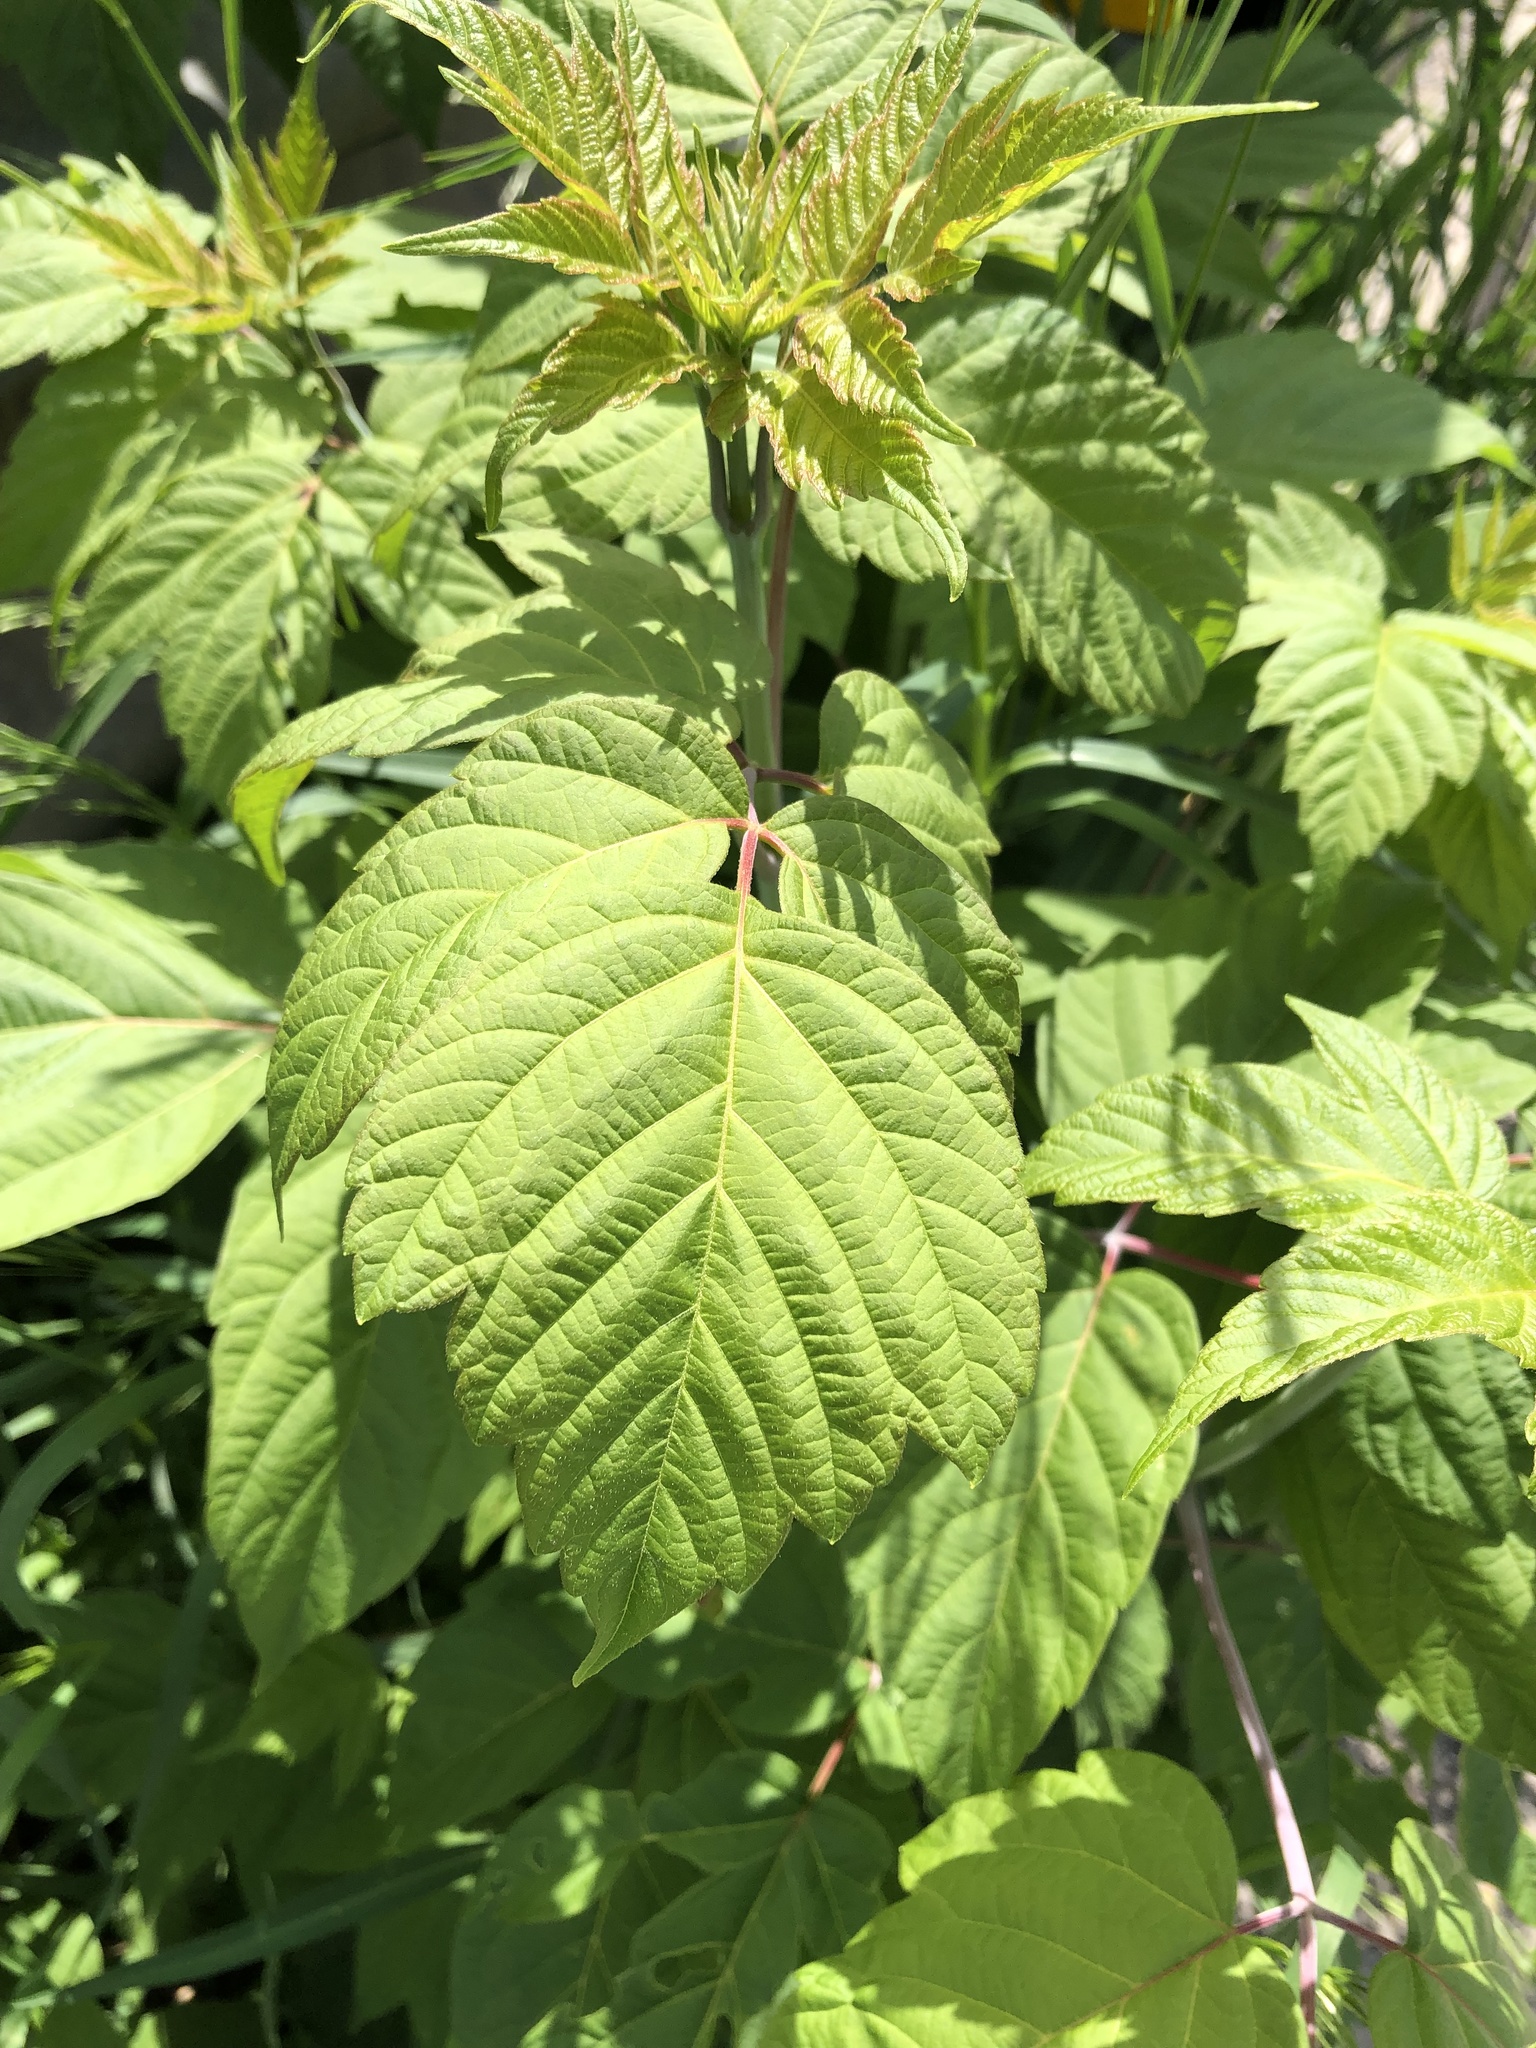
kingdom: Plantae
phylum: Tracheophyta
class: Magnoliopsida
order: Sapindales
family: Sapindaceae
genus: Acer
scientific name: Acer negundo
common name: Ashleaf maple
